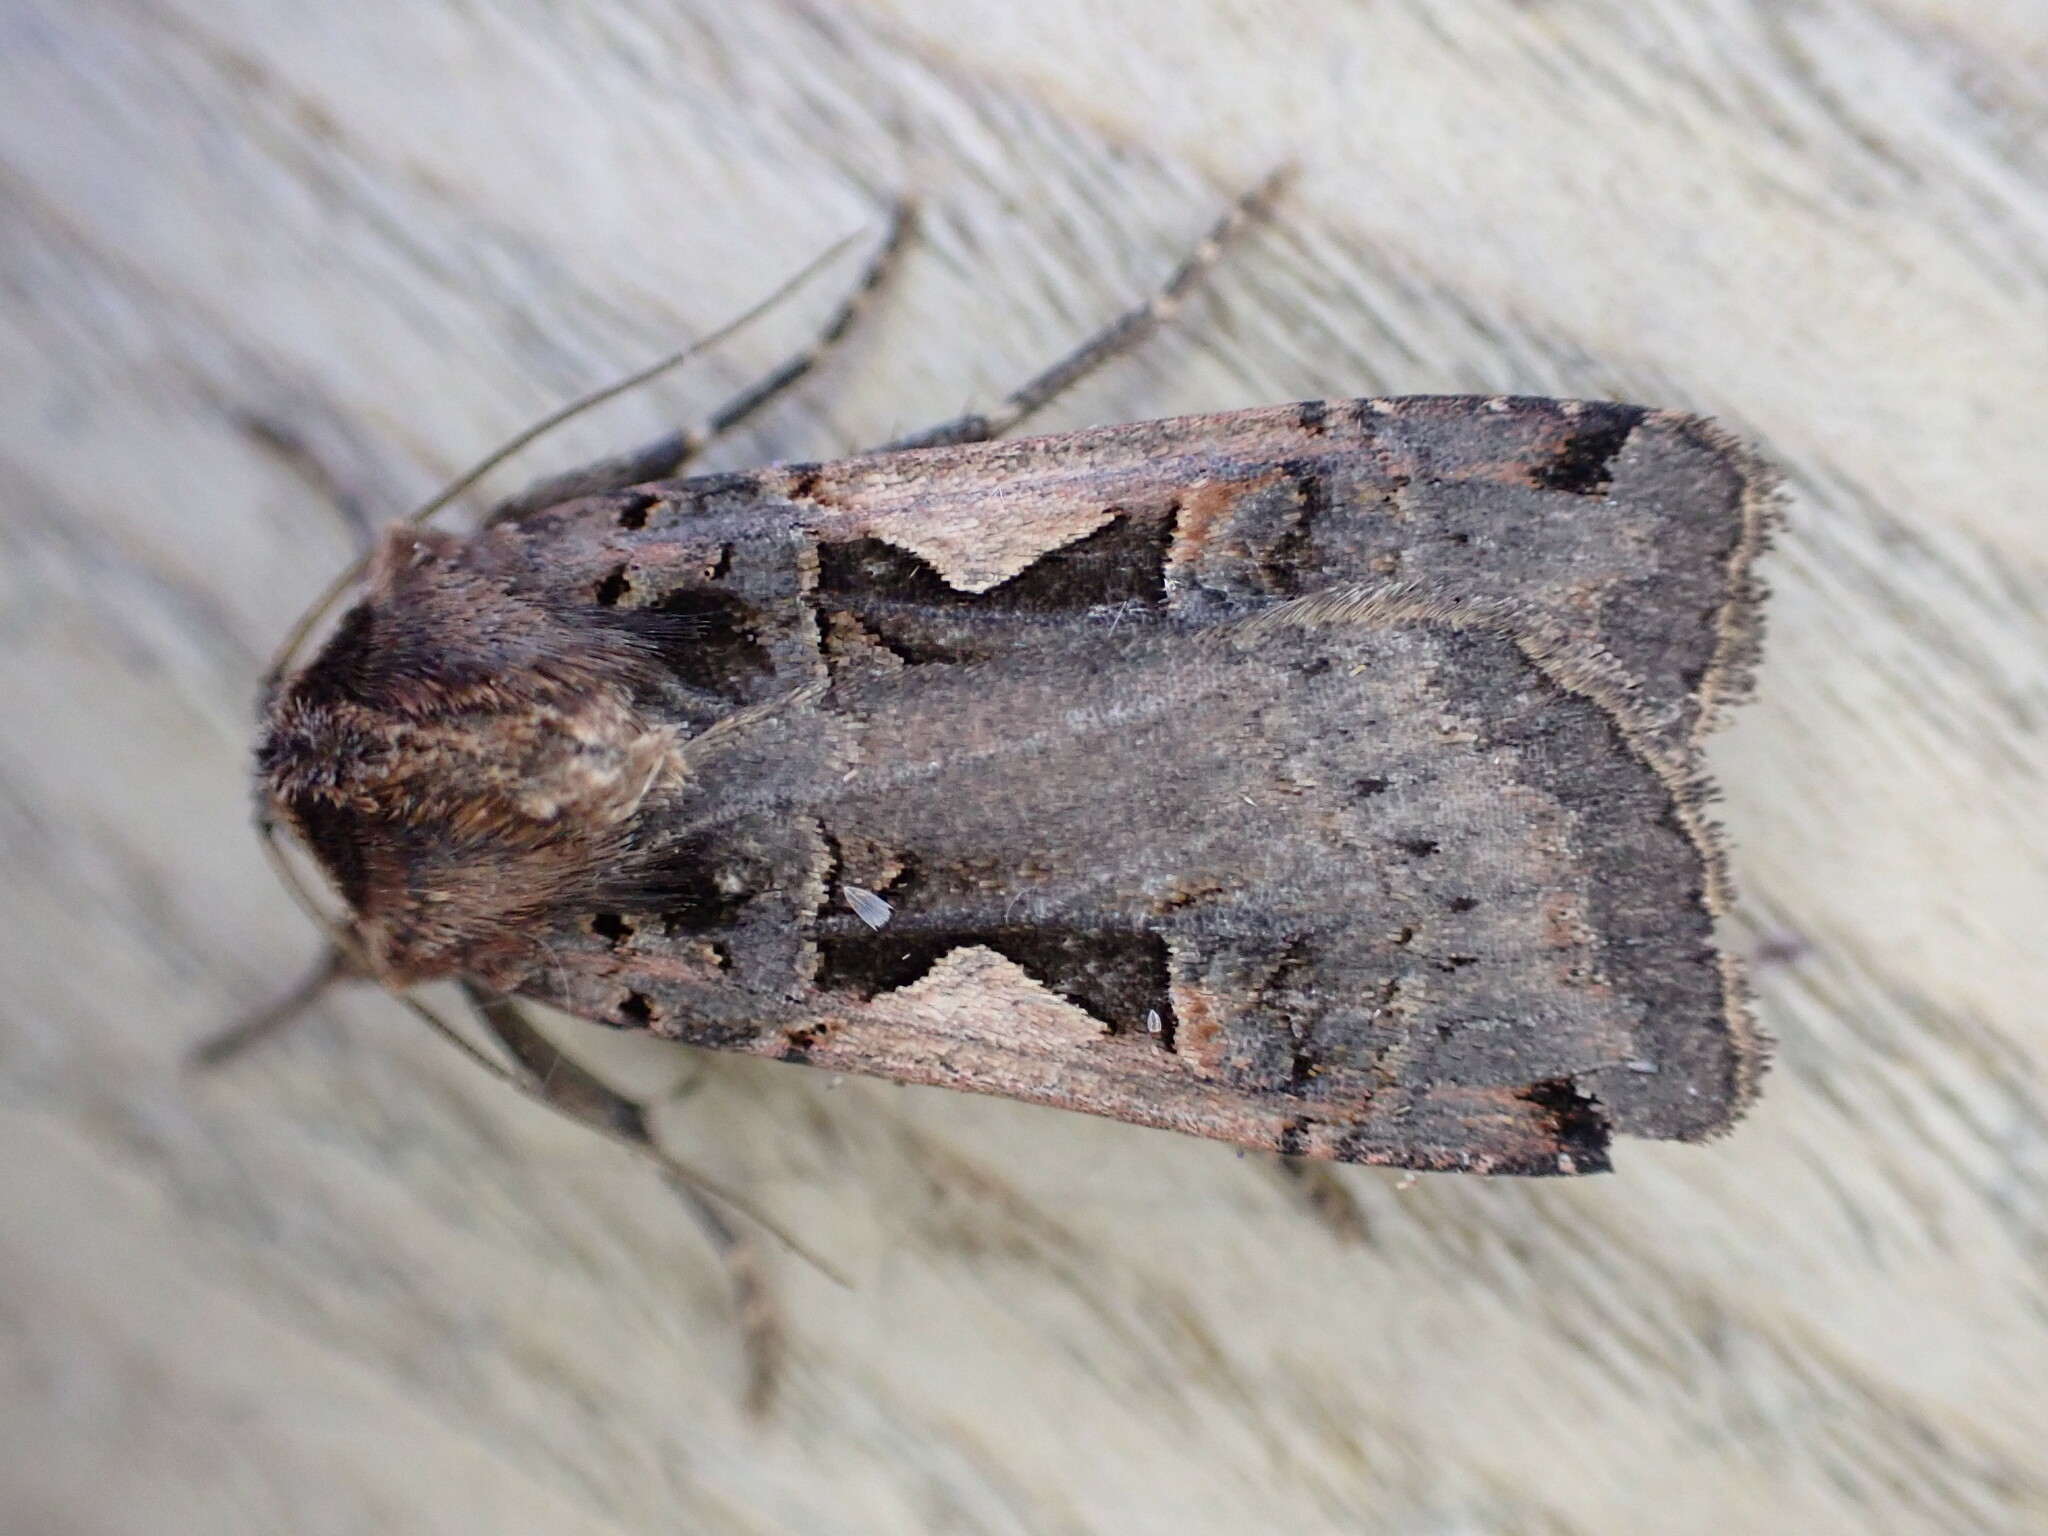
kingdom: Animalia
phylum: Arthropoda
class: Insecta
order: Lepidoptera
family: Noctuidae
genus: Xestia
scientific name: Xestia c-nigrum
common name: Setaceous hebrew character
